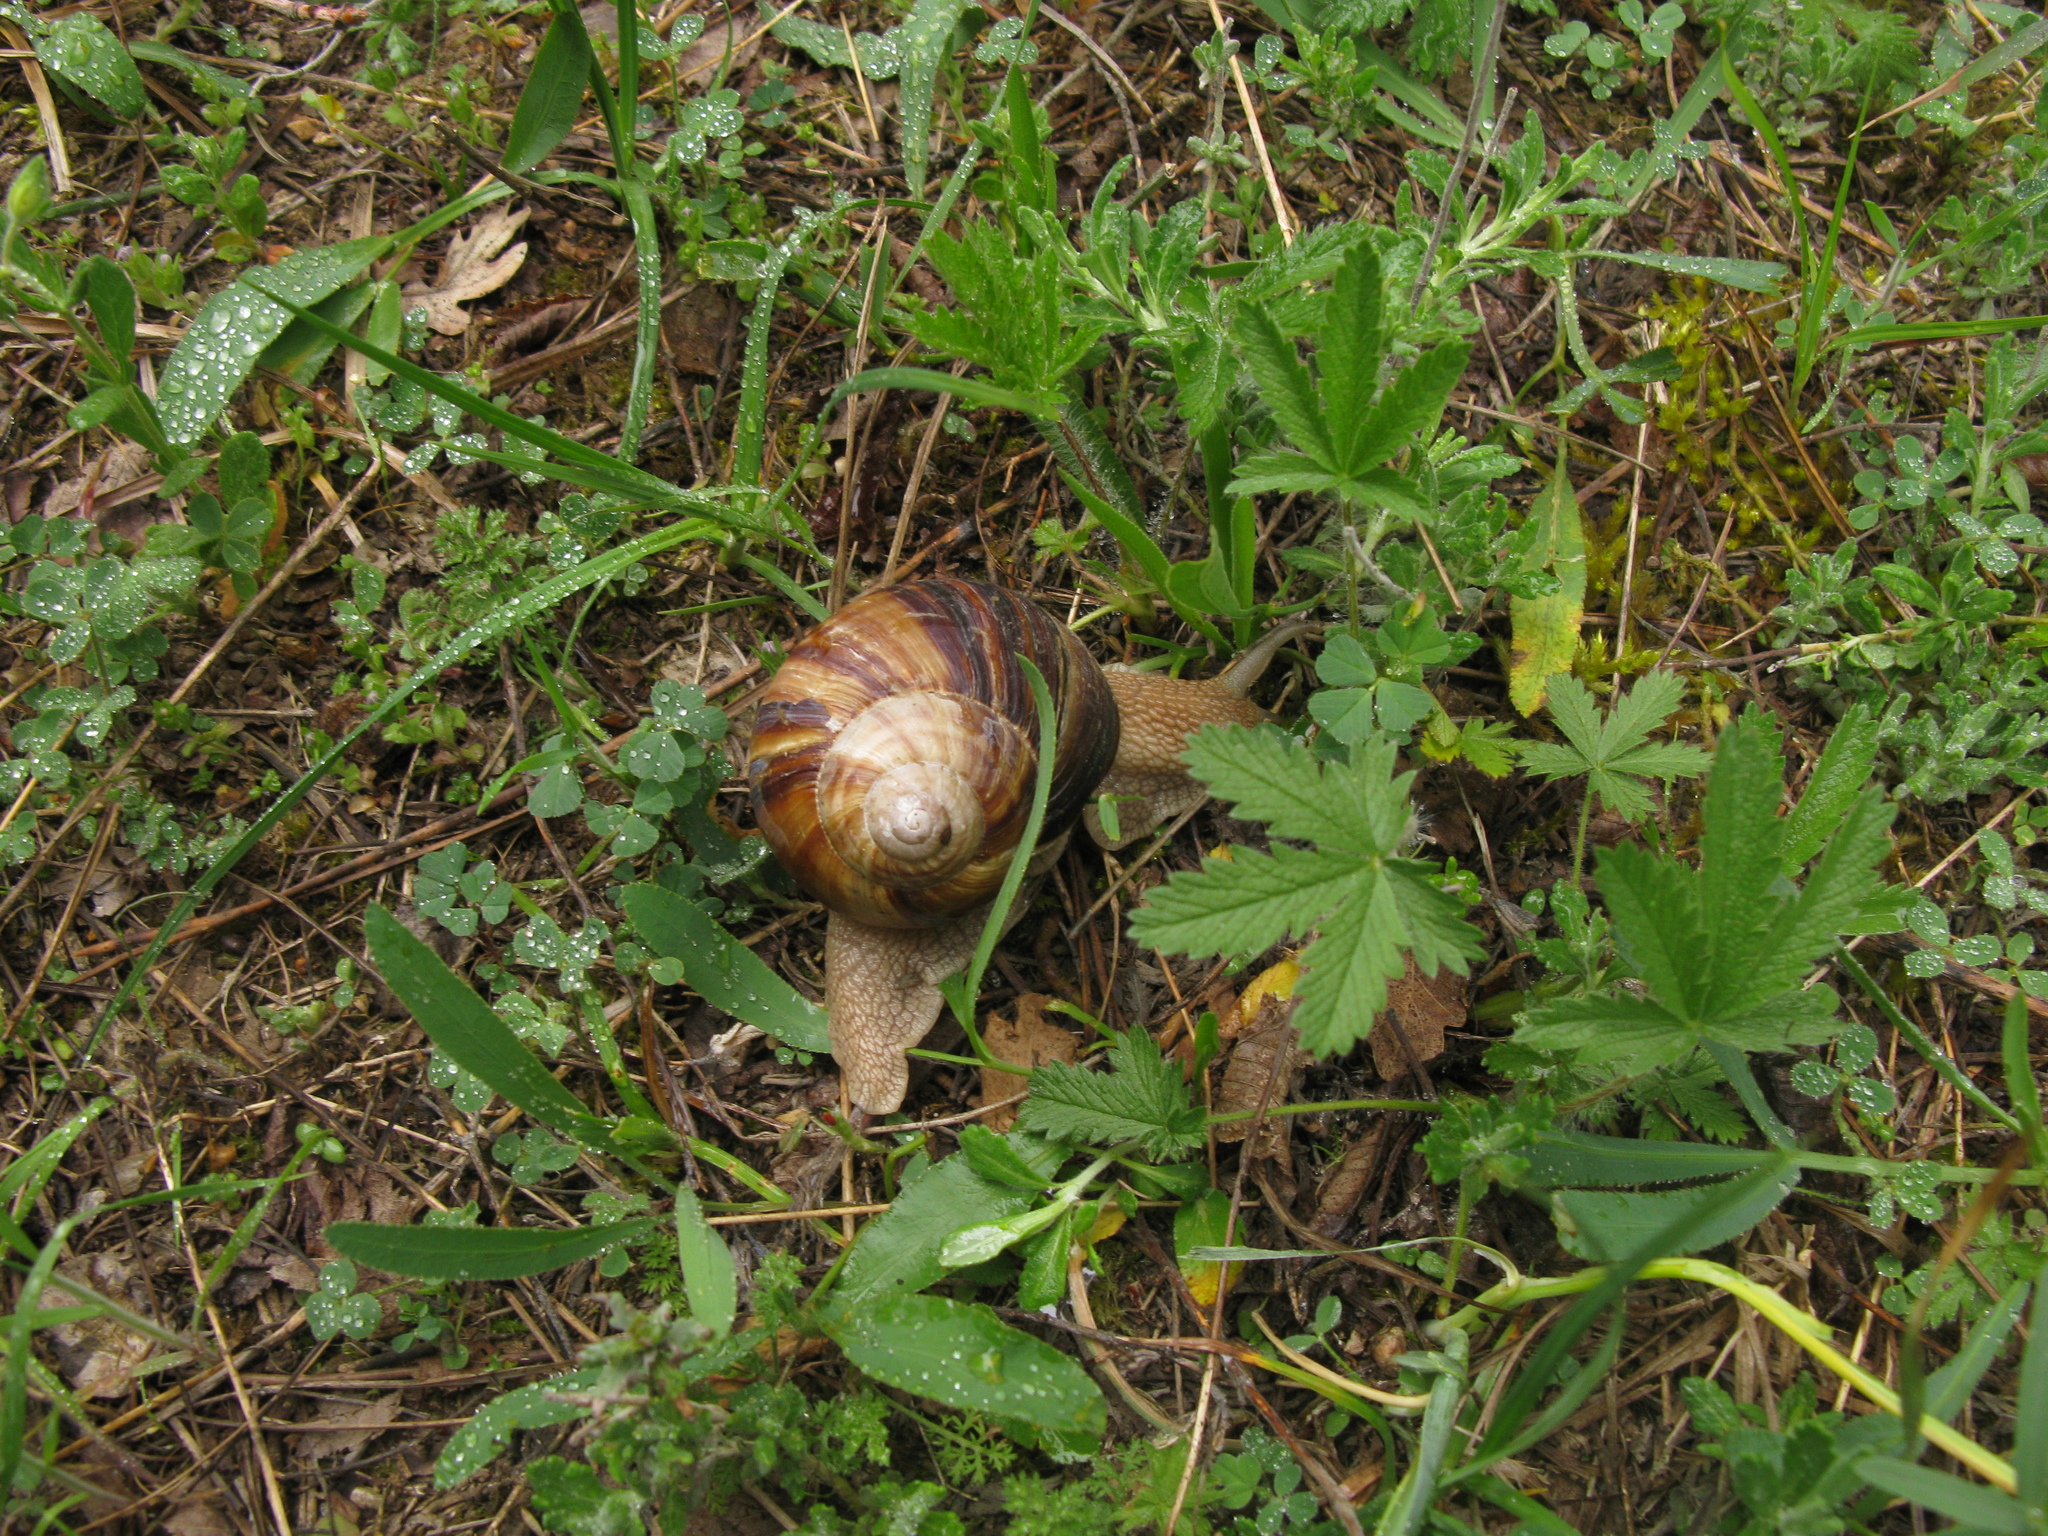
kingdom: Plantae
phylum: Tracheophyta
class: Magnoliopsida
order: Apiales
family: Apiaceae
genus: Falcaria
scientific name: Falcaria vulgaris
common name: Longleaf
